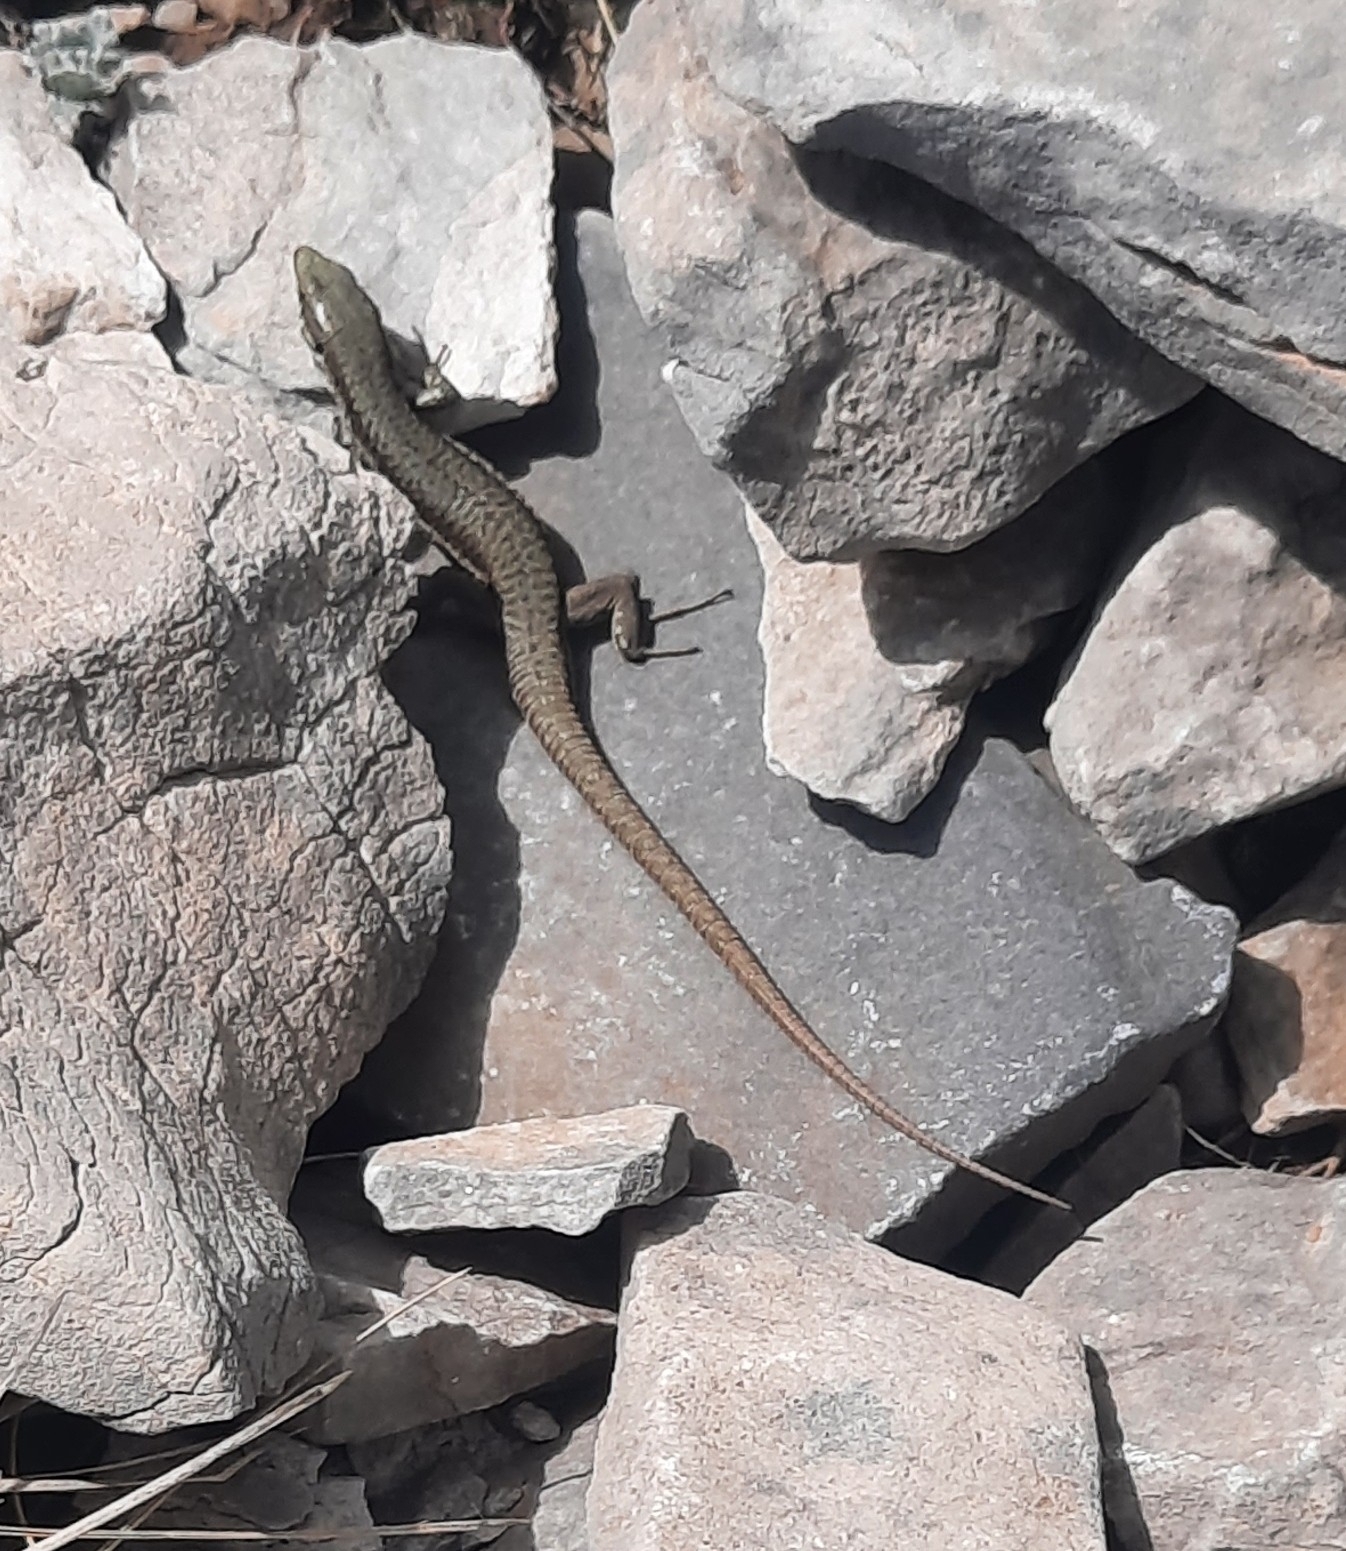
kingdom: Animalia
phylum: Chordata
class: Squamata
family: Lacertidae
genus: Podarcis
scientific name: Podarcis muralis
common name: Common wall lizard
